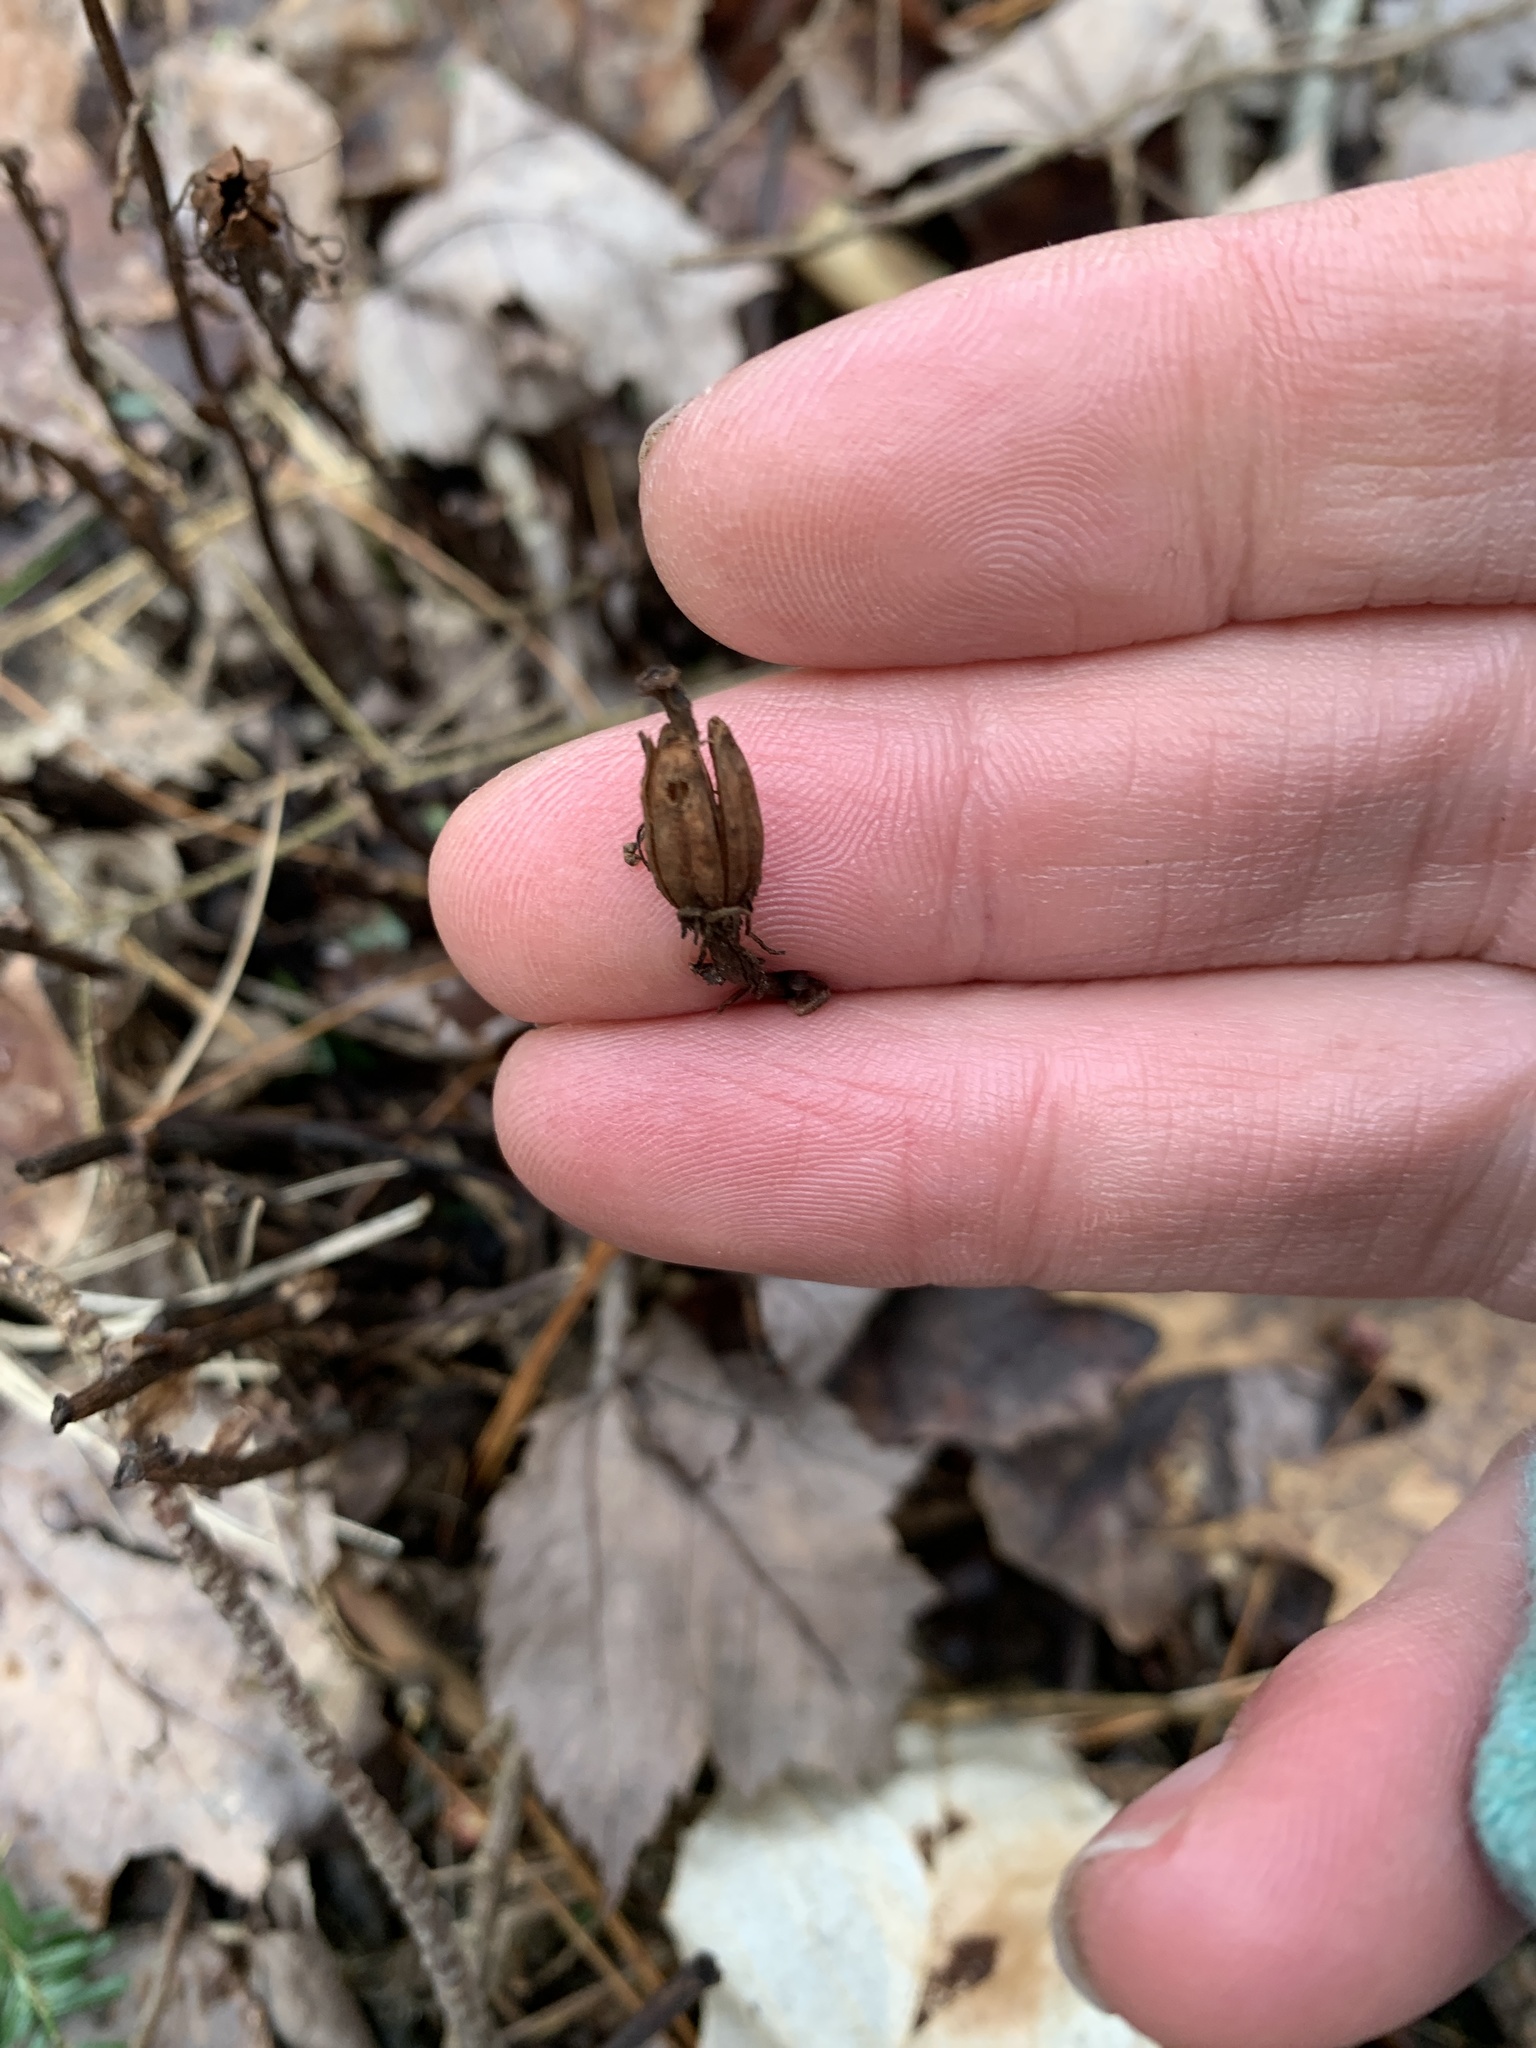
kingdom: Plantae
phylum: Tracheophyta
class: Magnoliopsida
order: Ericales
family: Ericaceae
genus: Monotropa
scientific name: Monotropa uniflora
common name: Convulsion root
